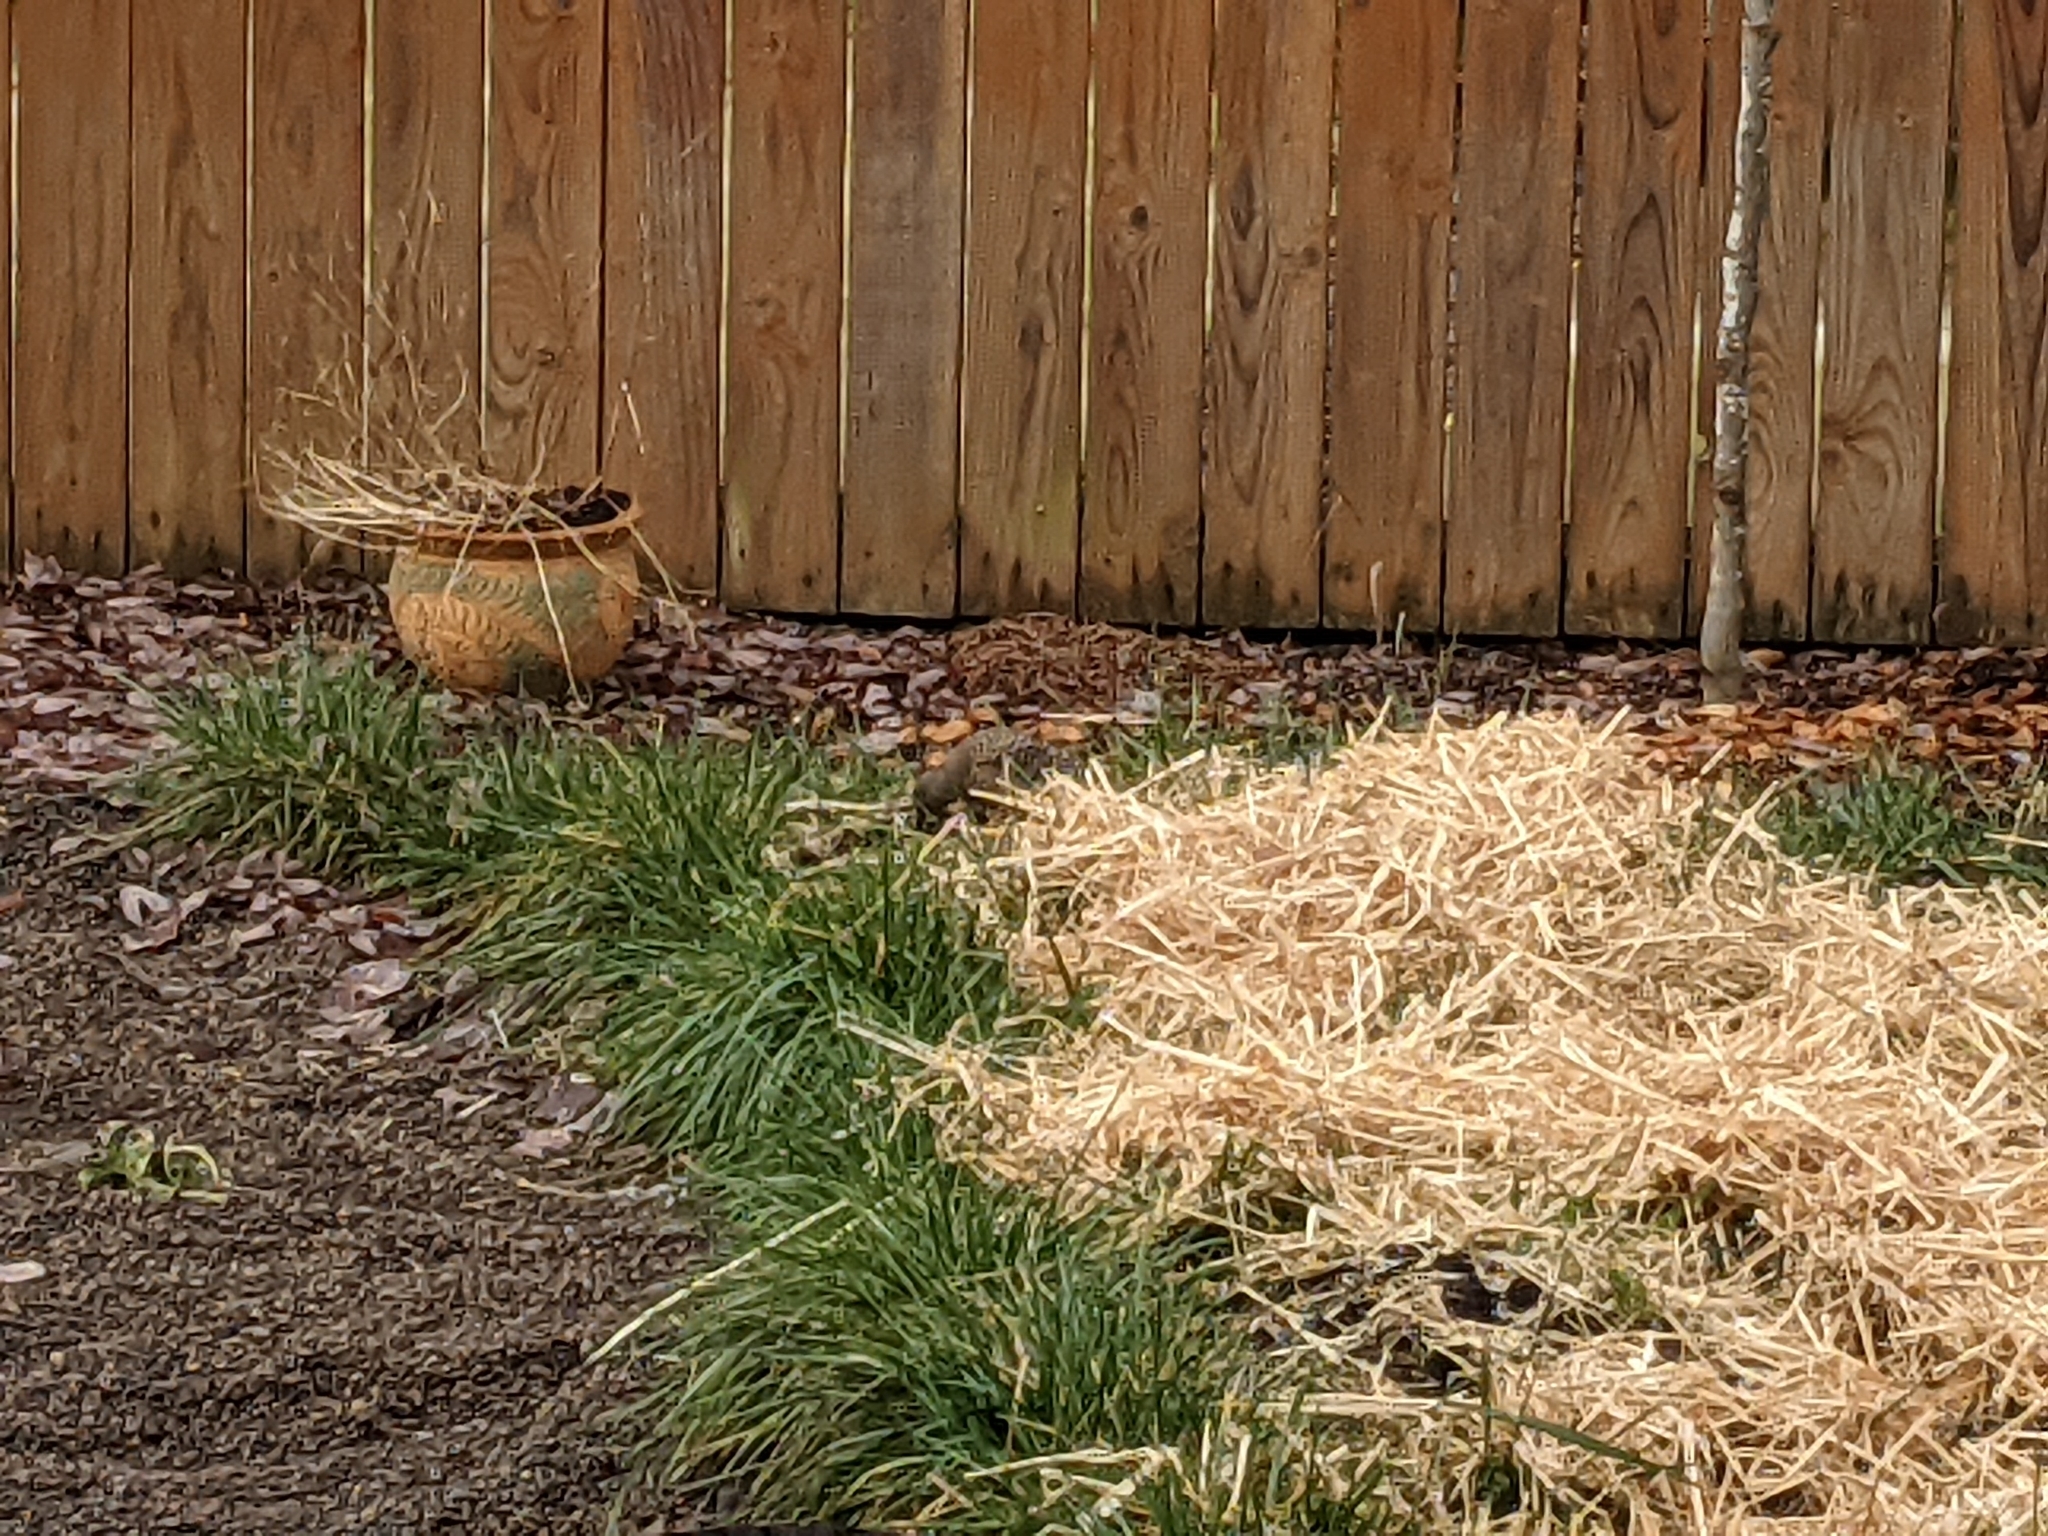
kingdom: Animalia
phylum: Chordata
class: Aves
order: Piciformes
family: Picidae
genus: Colaptes
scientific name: Colaptes auratus
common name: Northern flicker
